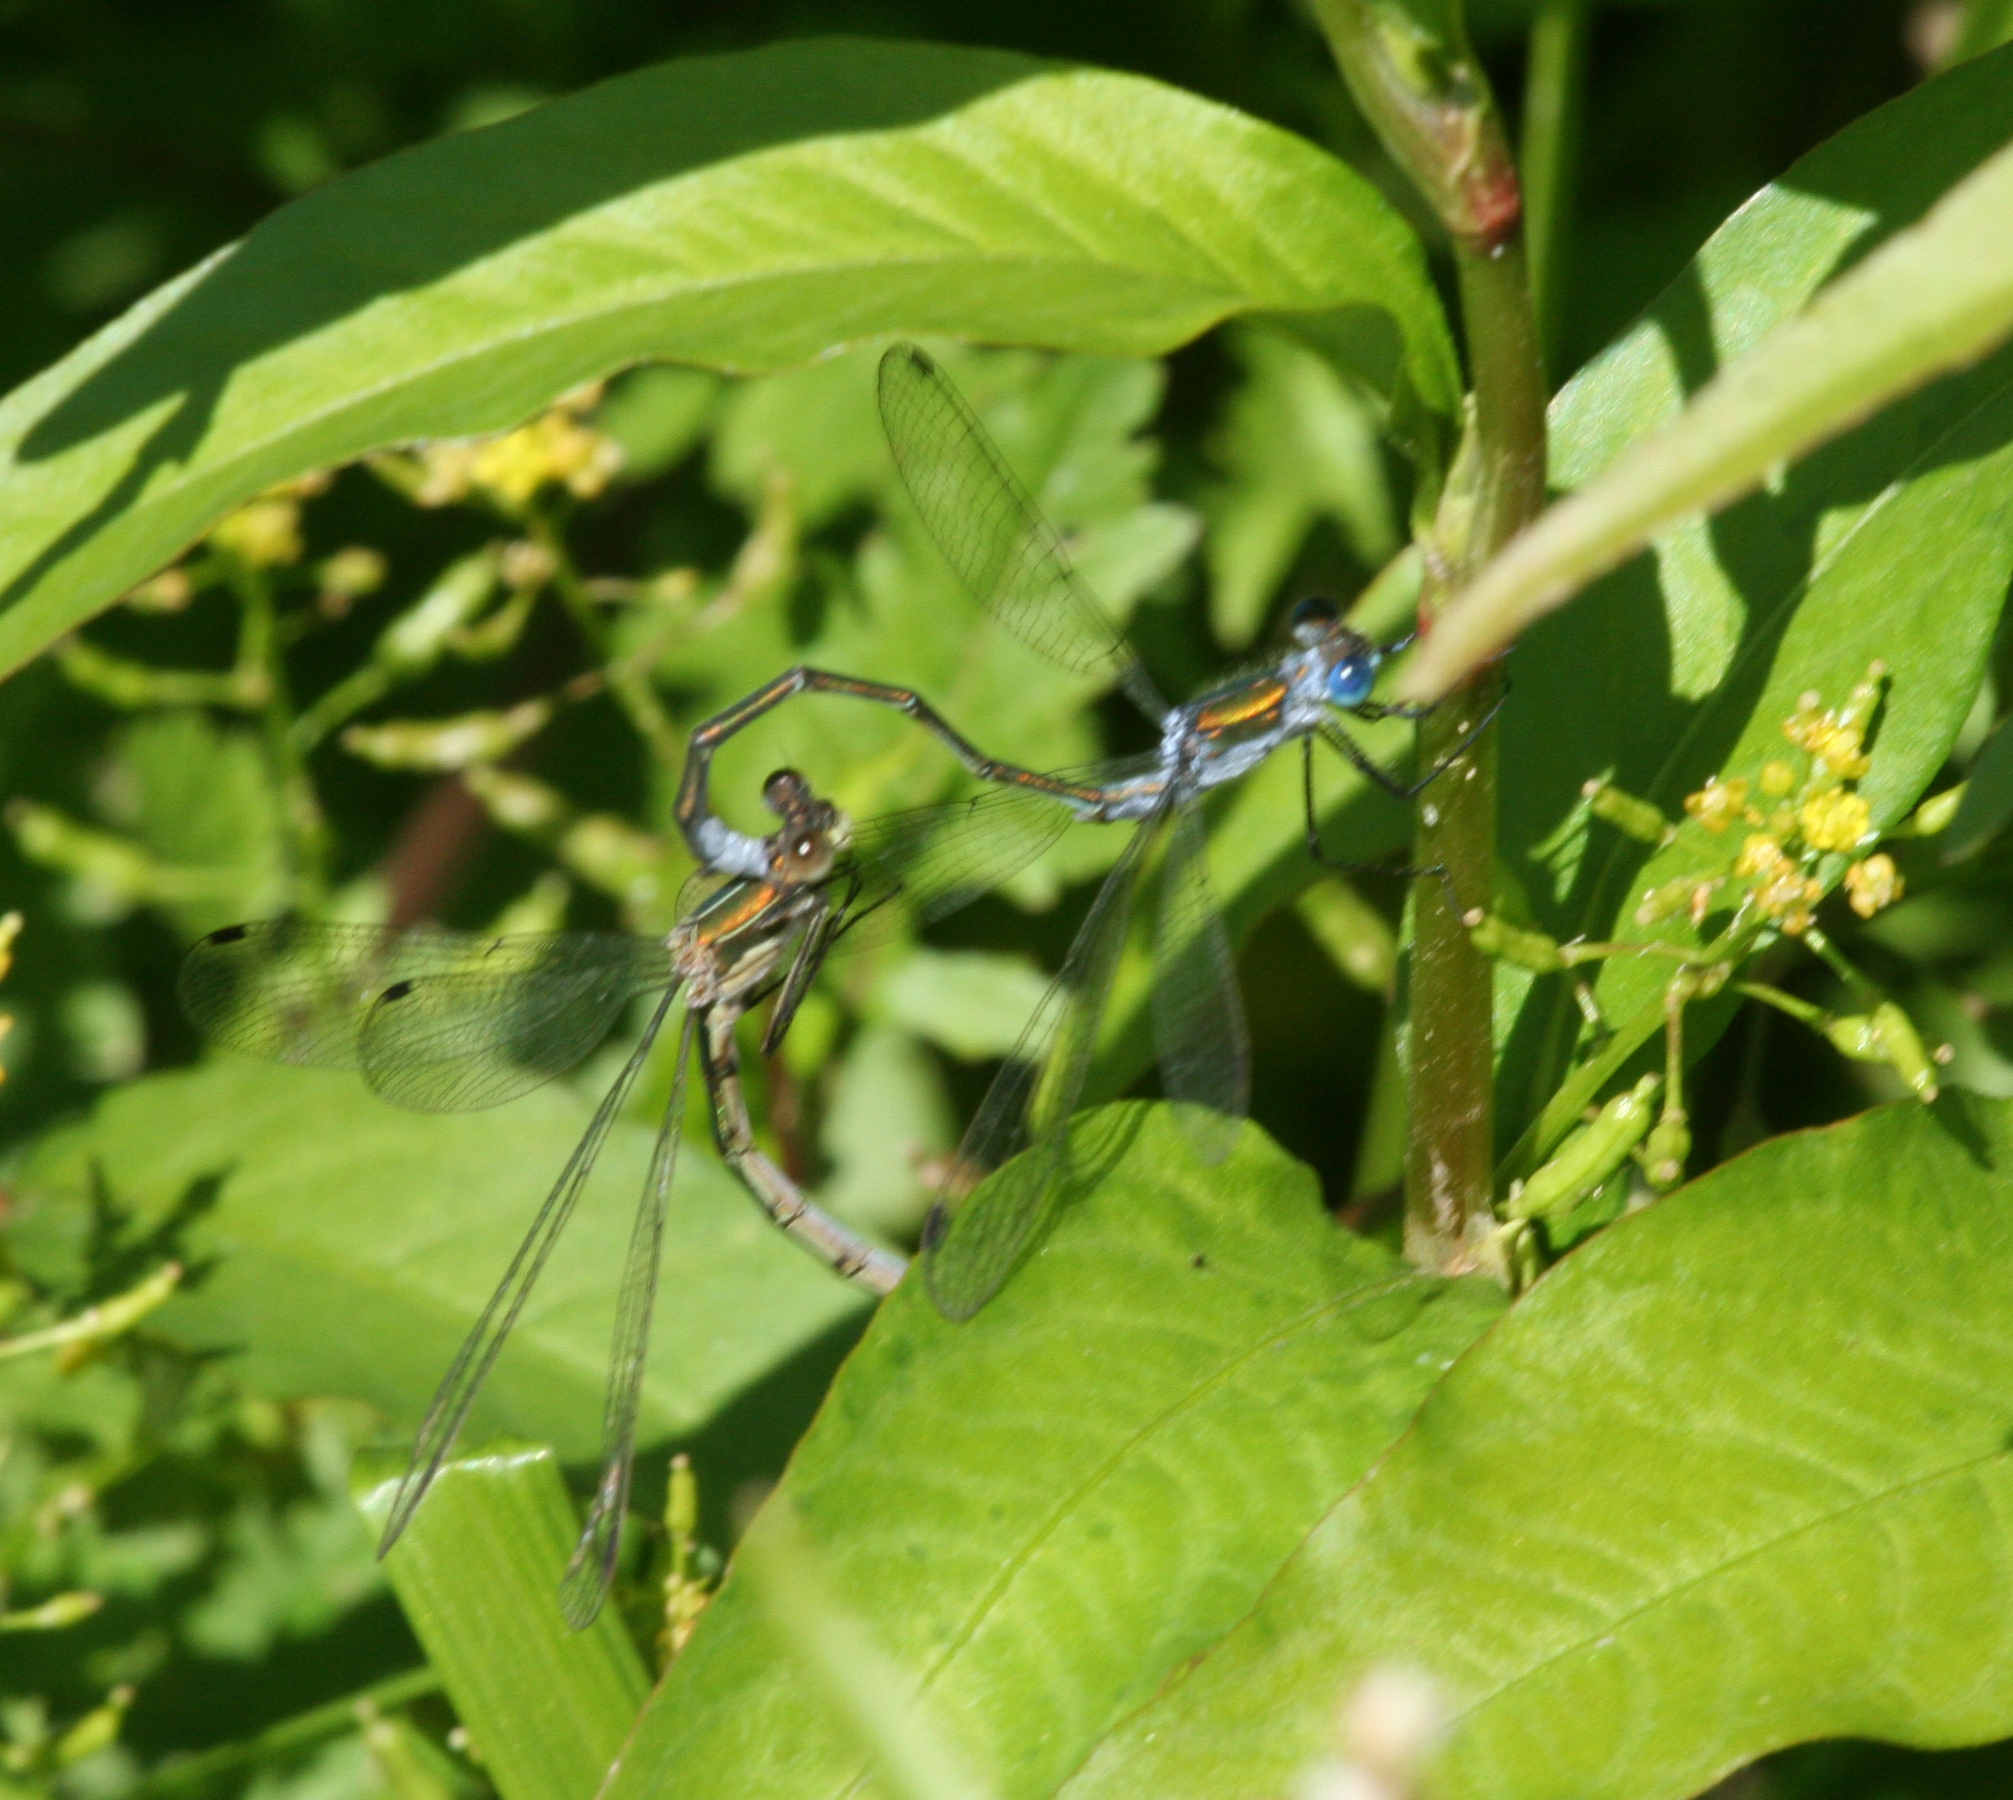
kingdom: Animalia
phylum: Arthropoda
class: Insecta
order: Odonata
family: Lestidae
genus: Lestes
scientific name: Lestes sponsa
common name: Common spreadwing
